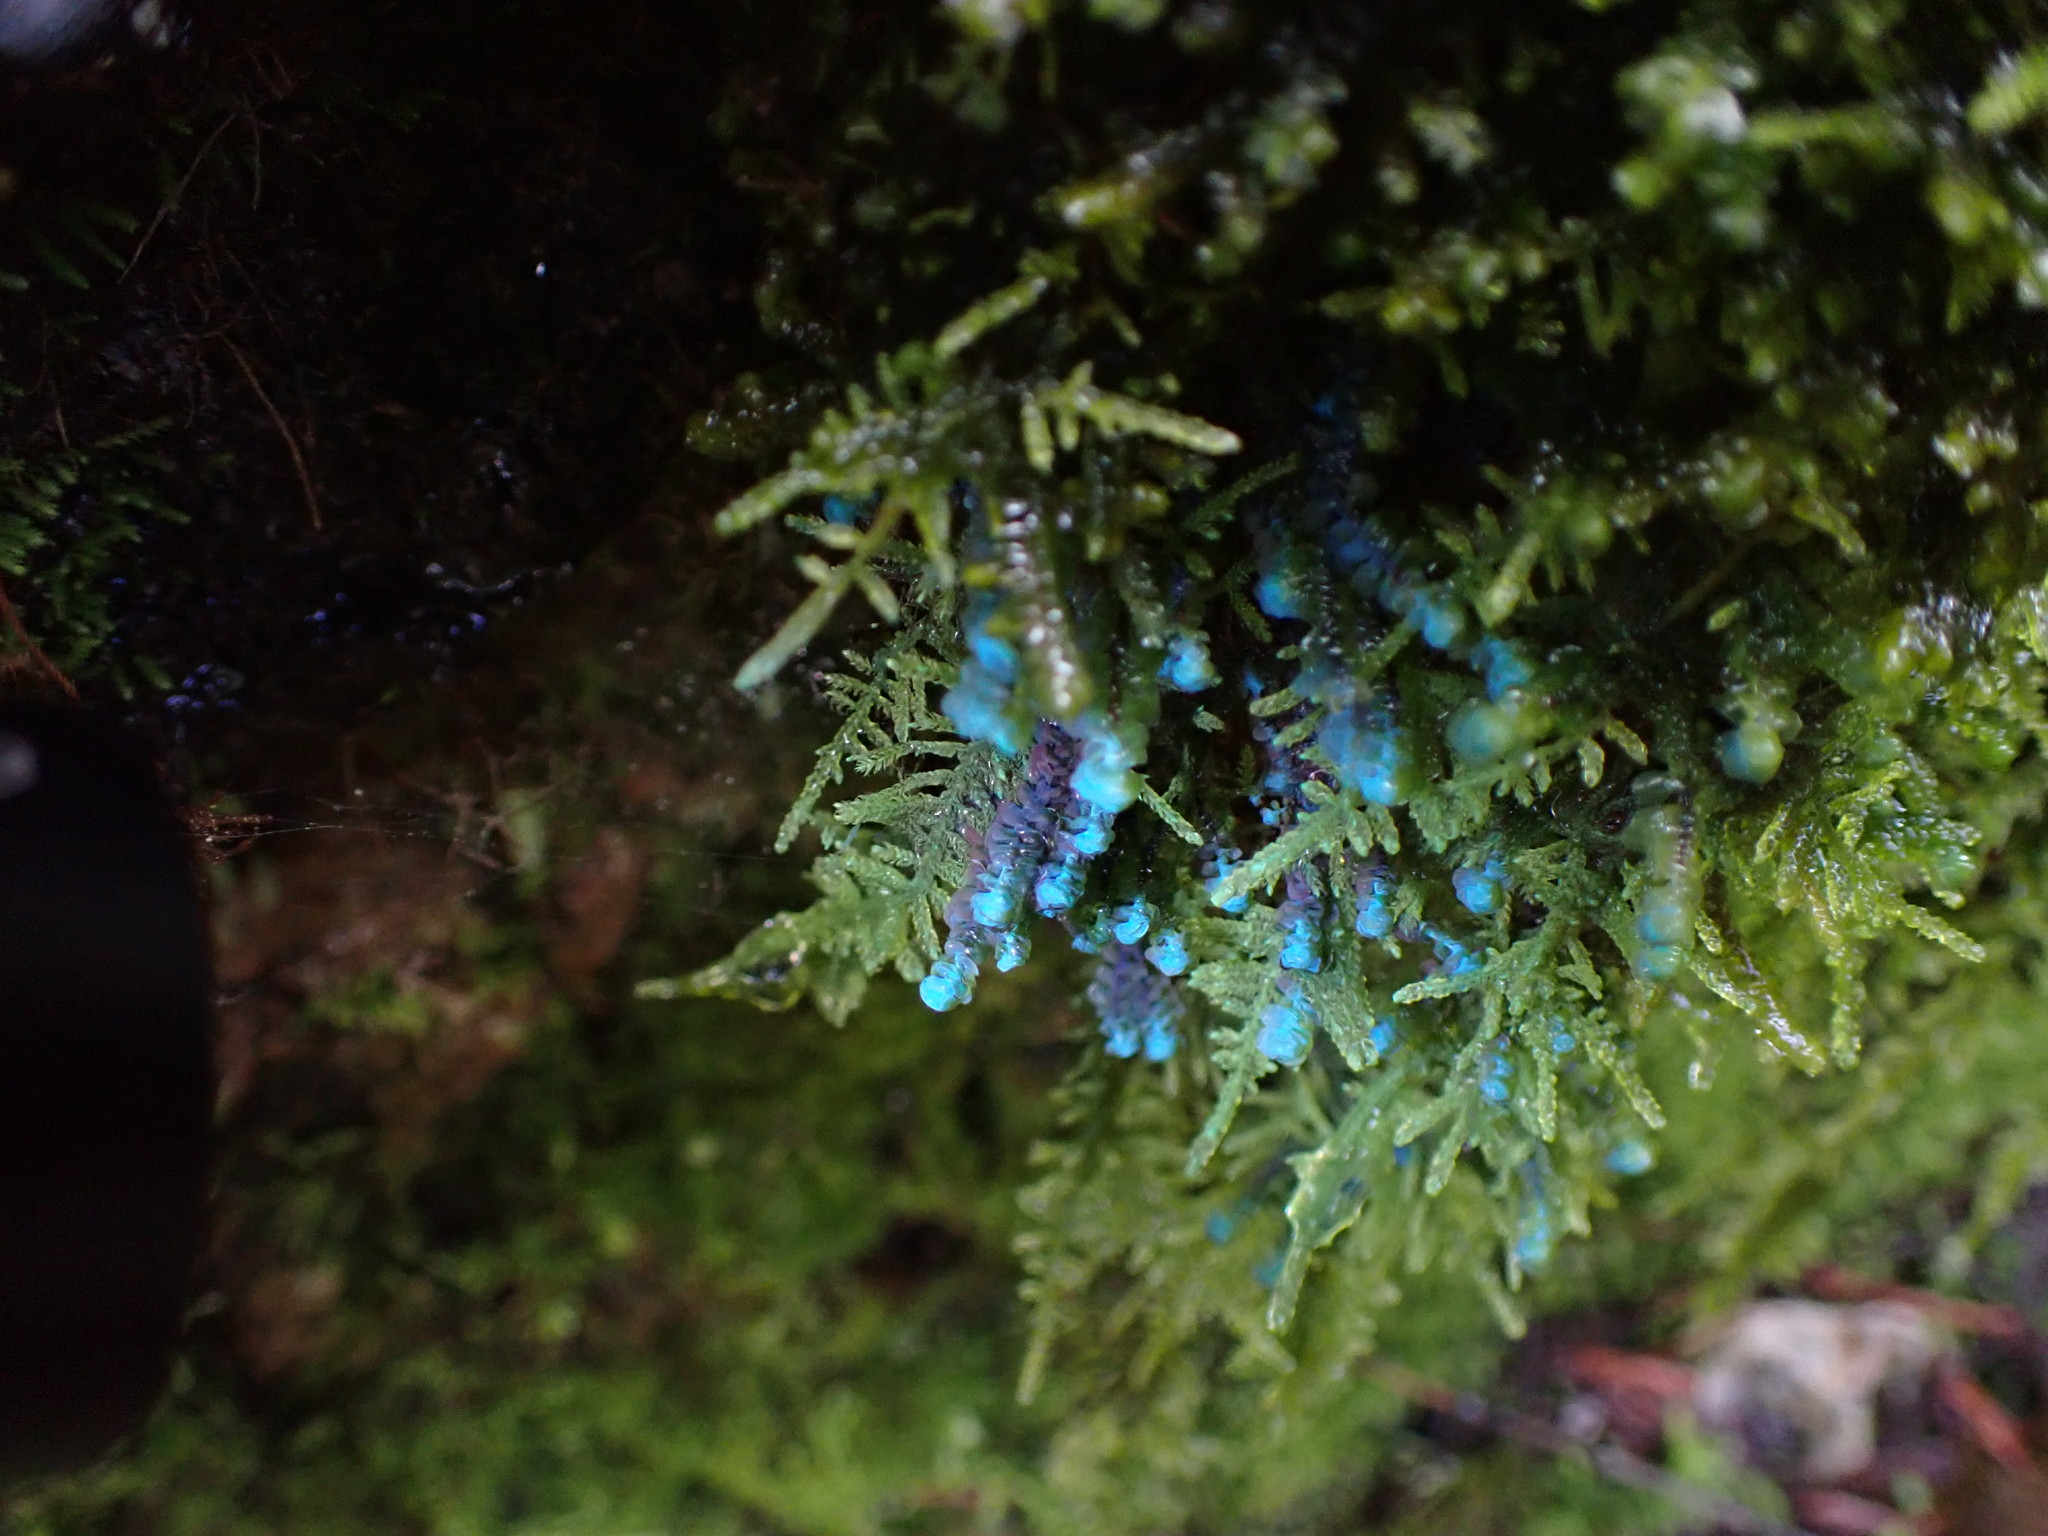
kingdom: Plantae
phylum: Marchantiophyta
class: Jungermanniopsida
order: Jungermanniales
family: Scapaniaceae
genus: Scapania
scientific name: Scapania americana
